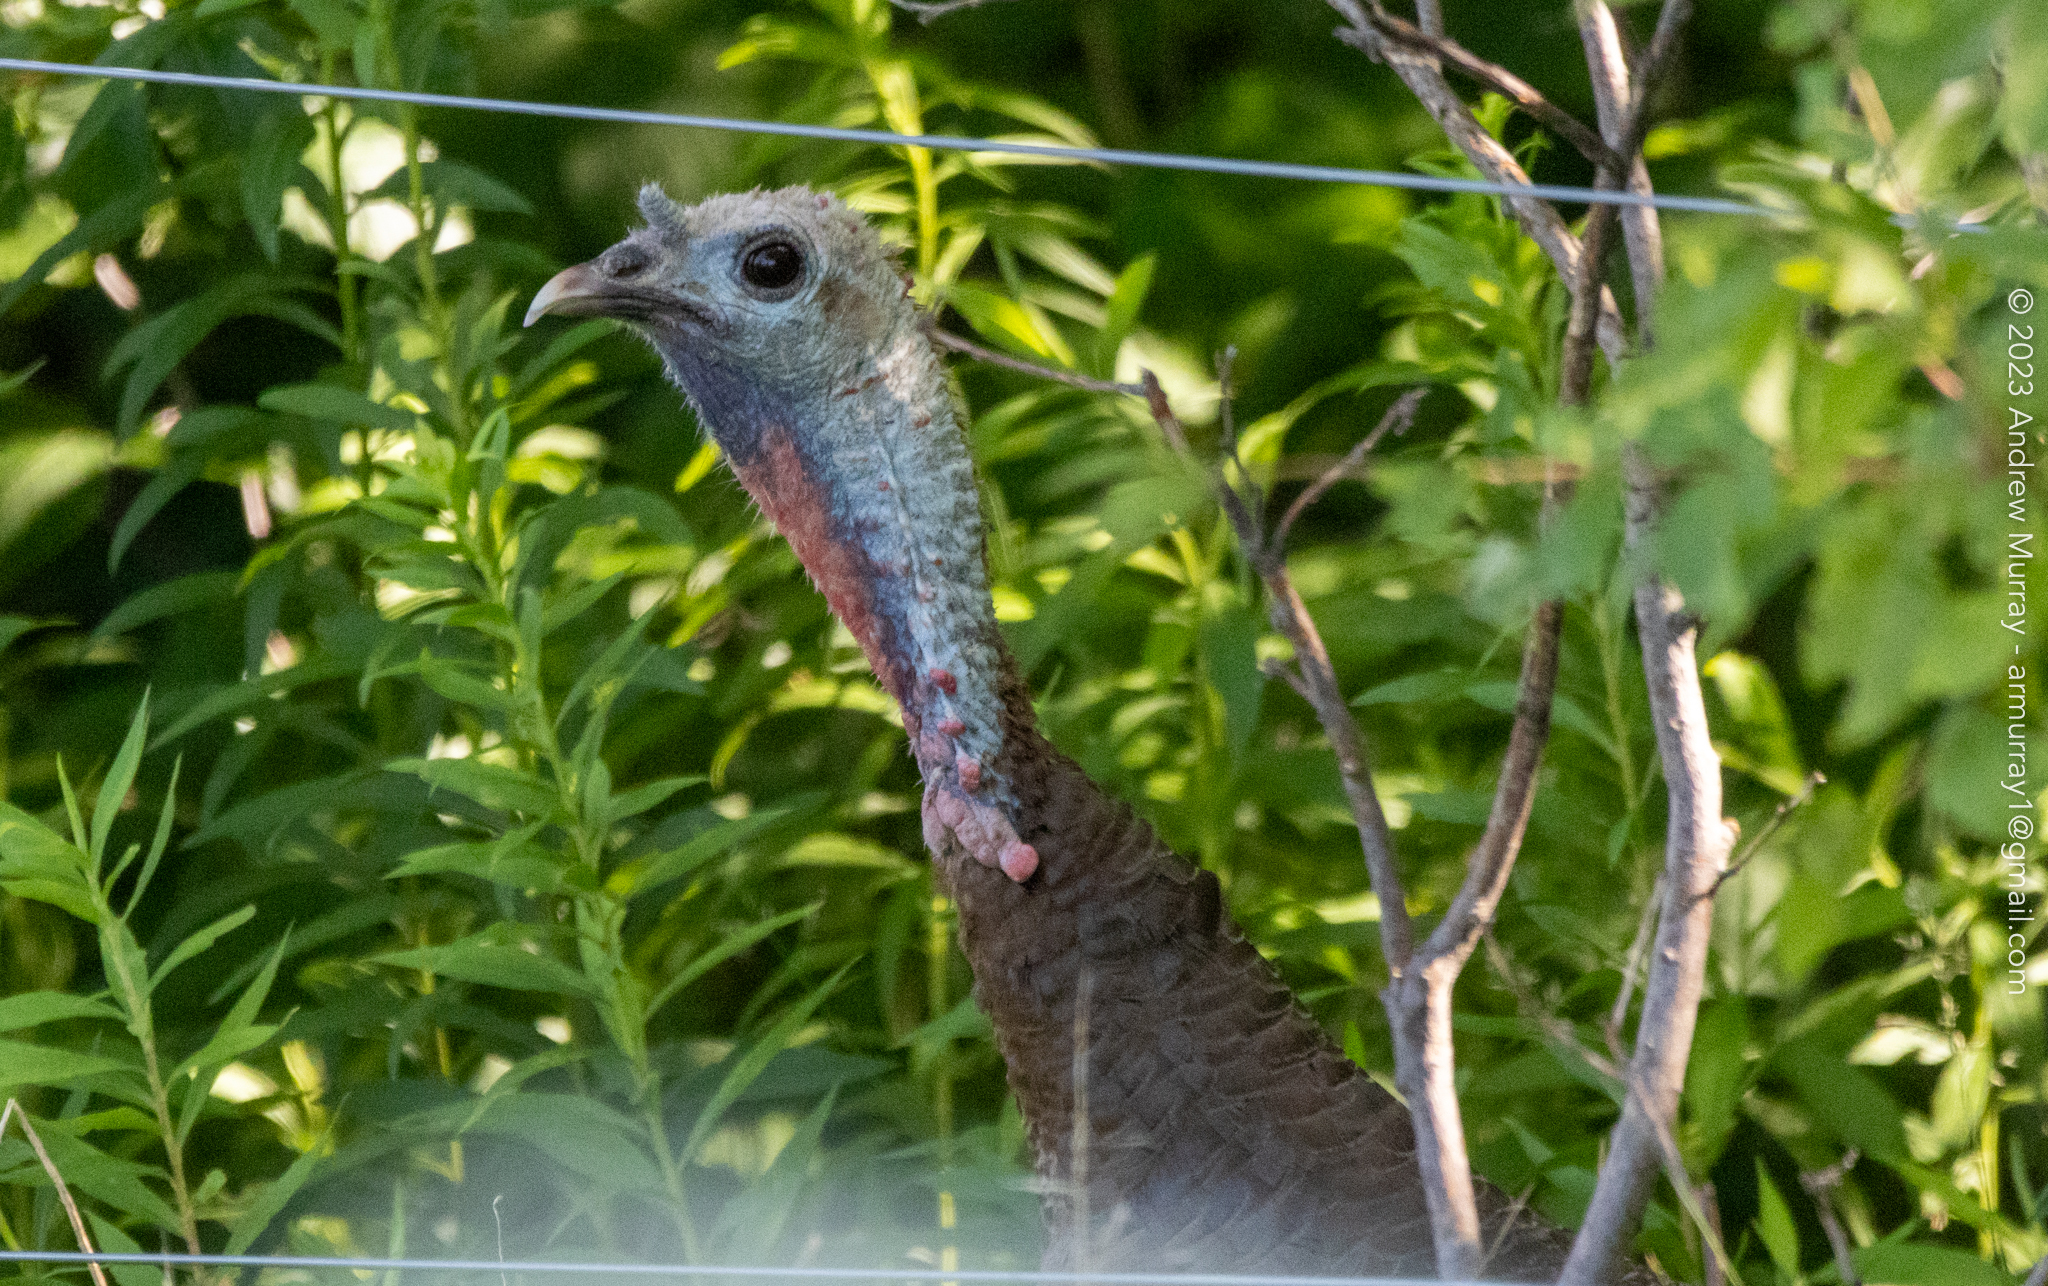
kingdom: Animalia
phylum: Chordata
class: Aves
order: Galliformes
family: Phasianidae
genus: Meleagris
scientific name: Meleagris gallopavo
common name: Wild turkey
